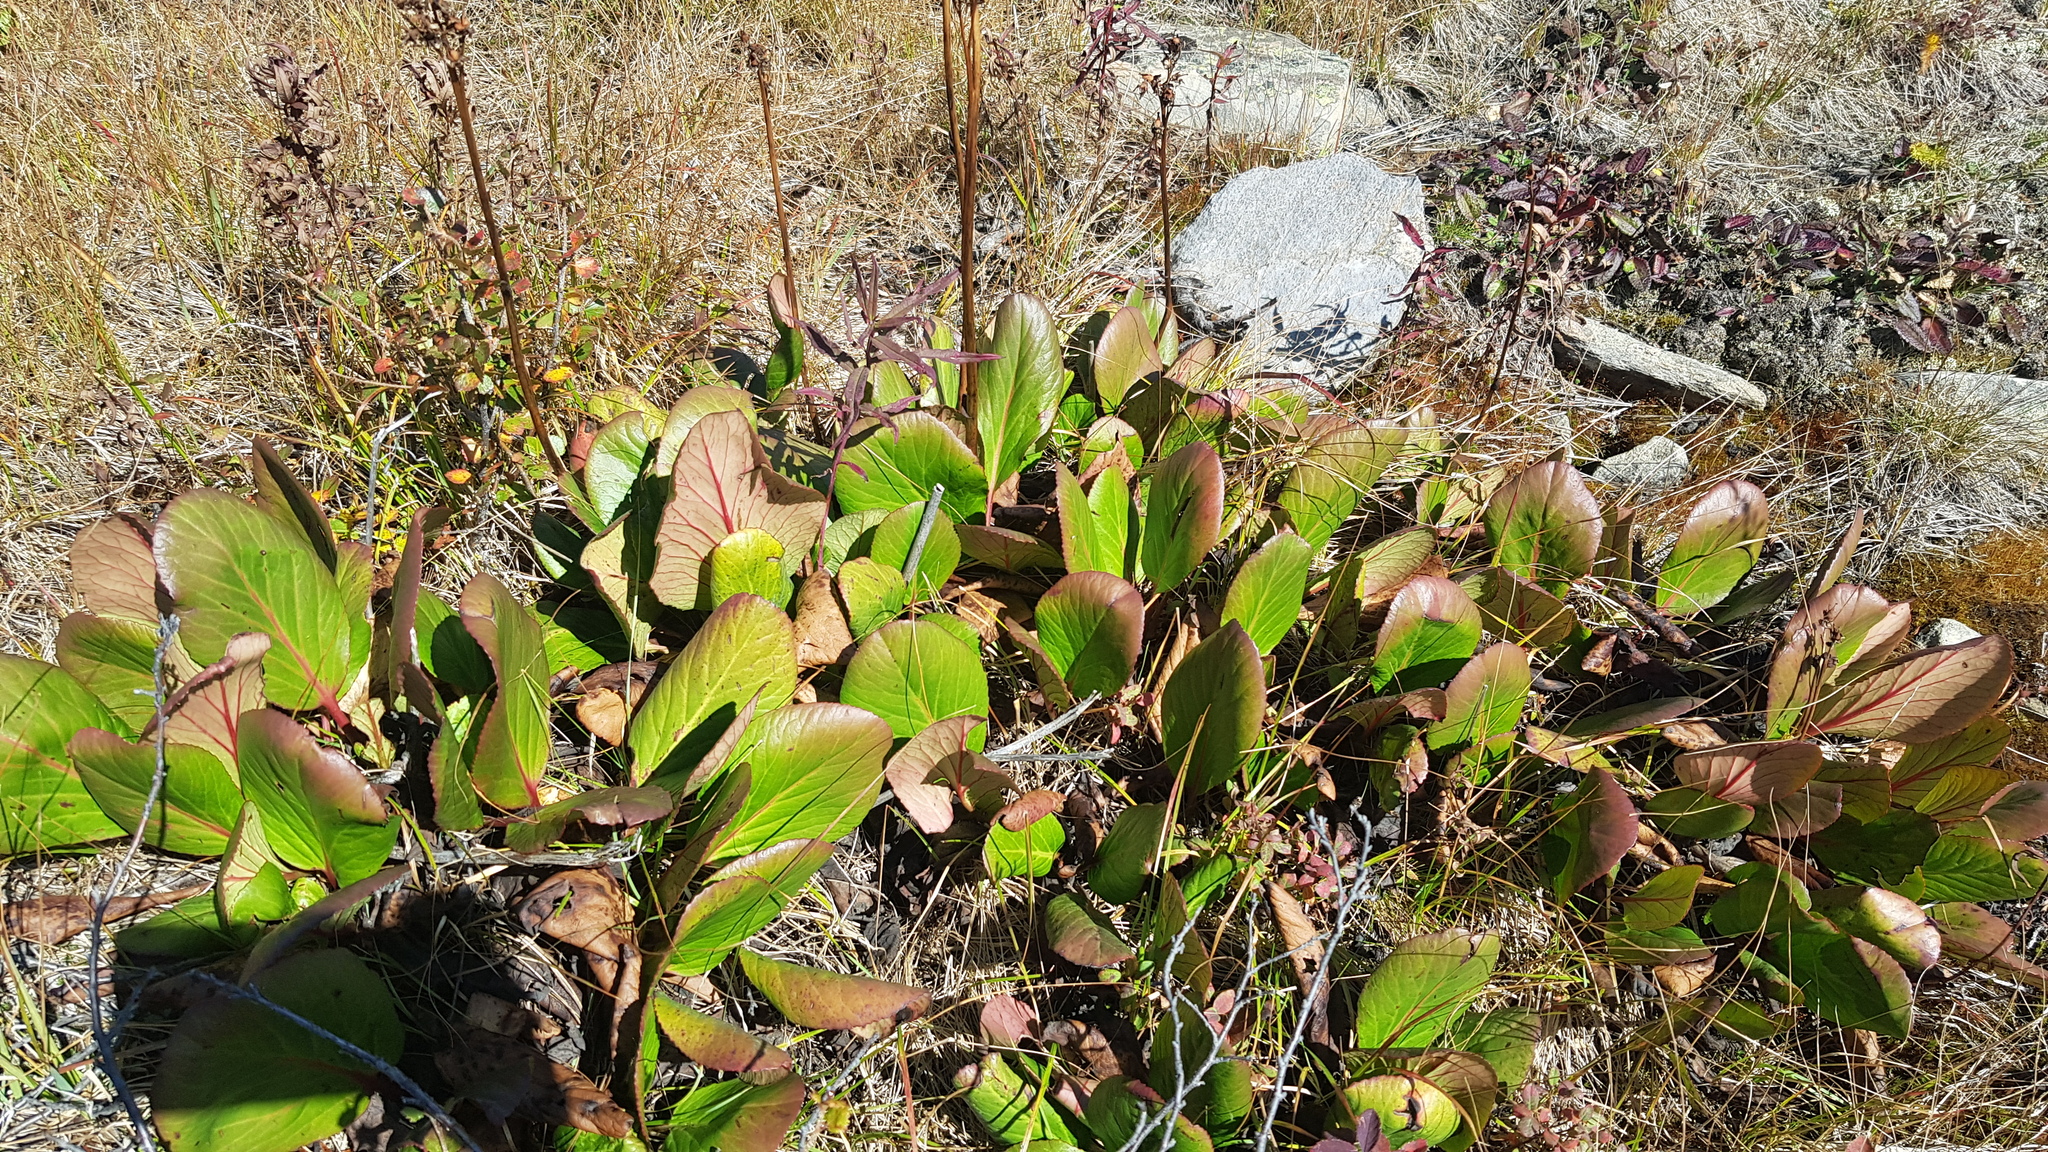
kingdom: Plantae
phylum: Tracheophyta
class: Magnoliopsida
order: Saxifragales
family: Saxifragaceae
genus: Bergenia
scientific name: Bergenia crassifolia
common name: Elephant-ears
